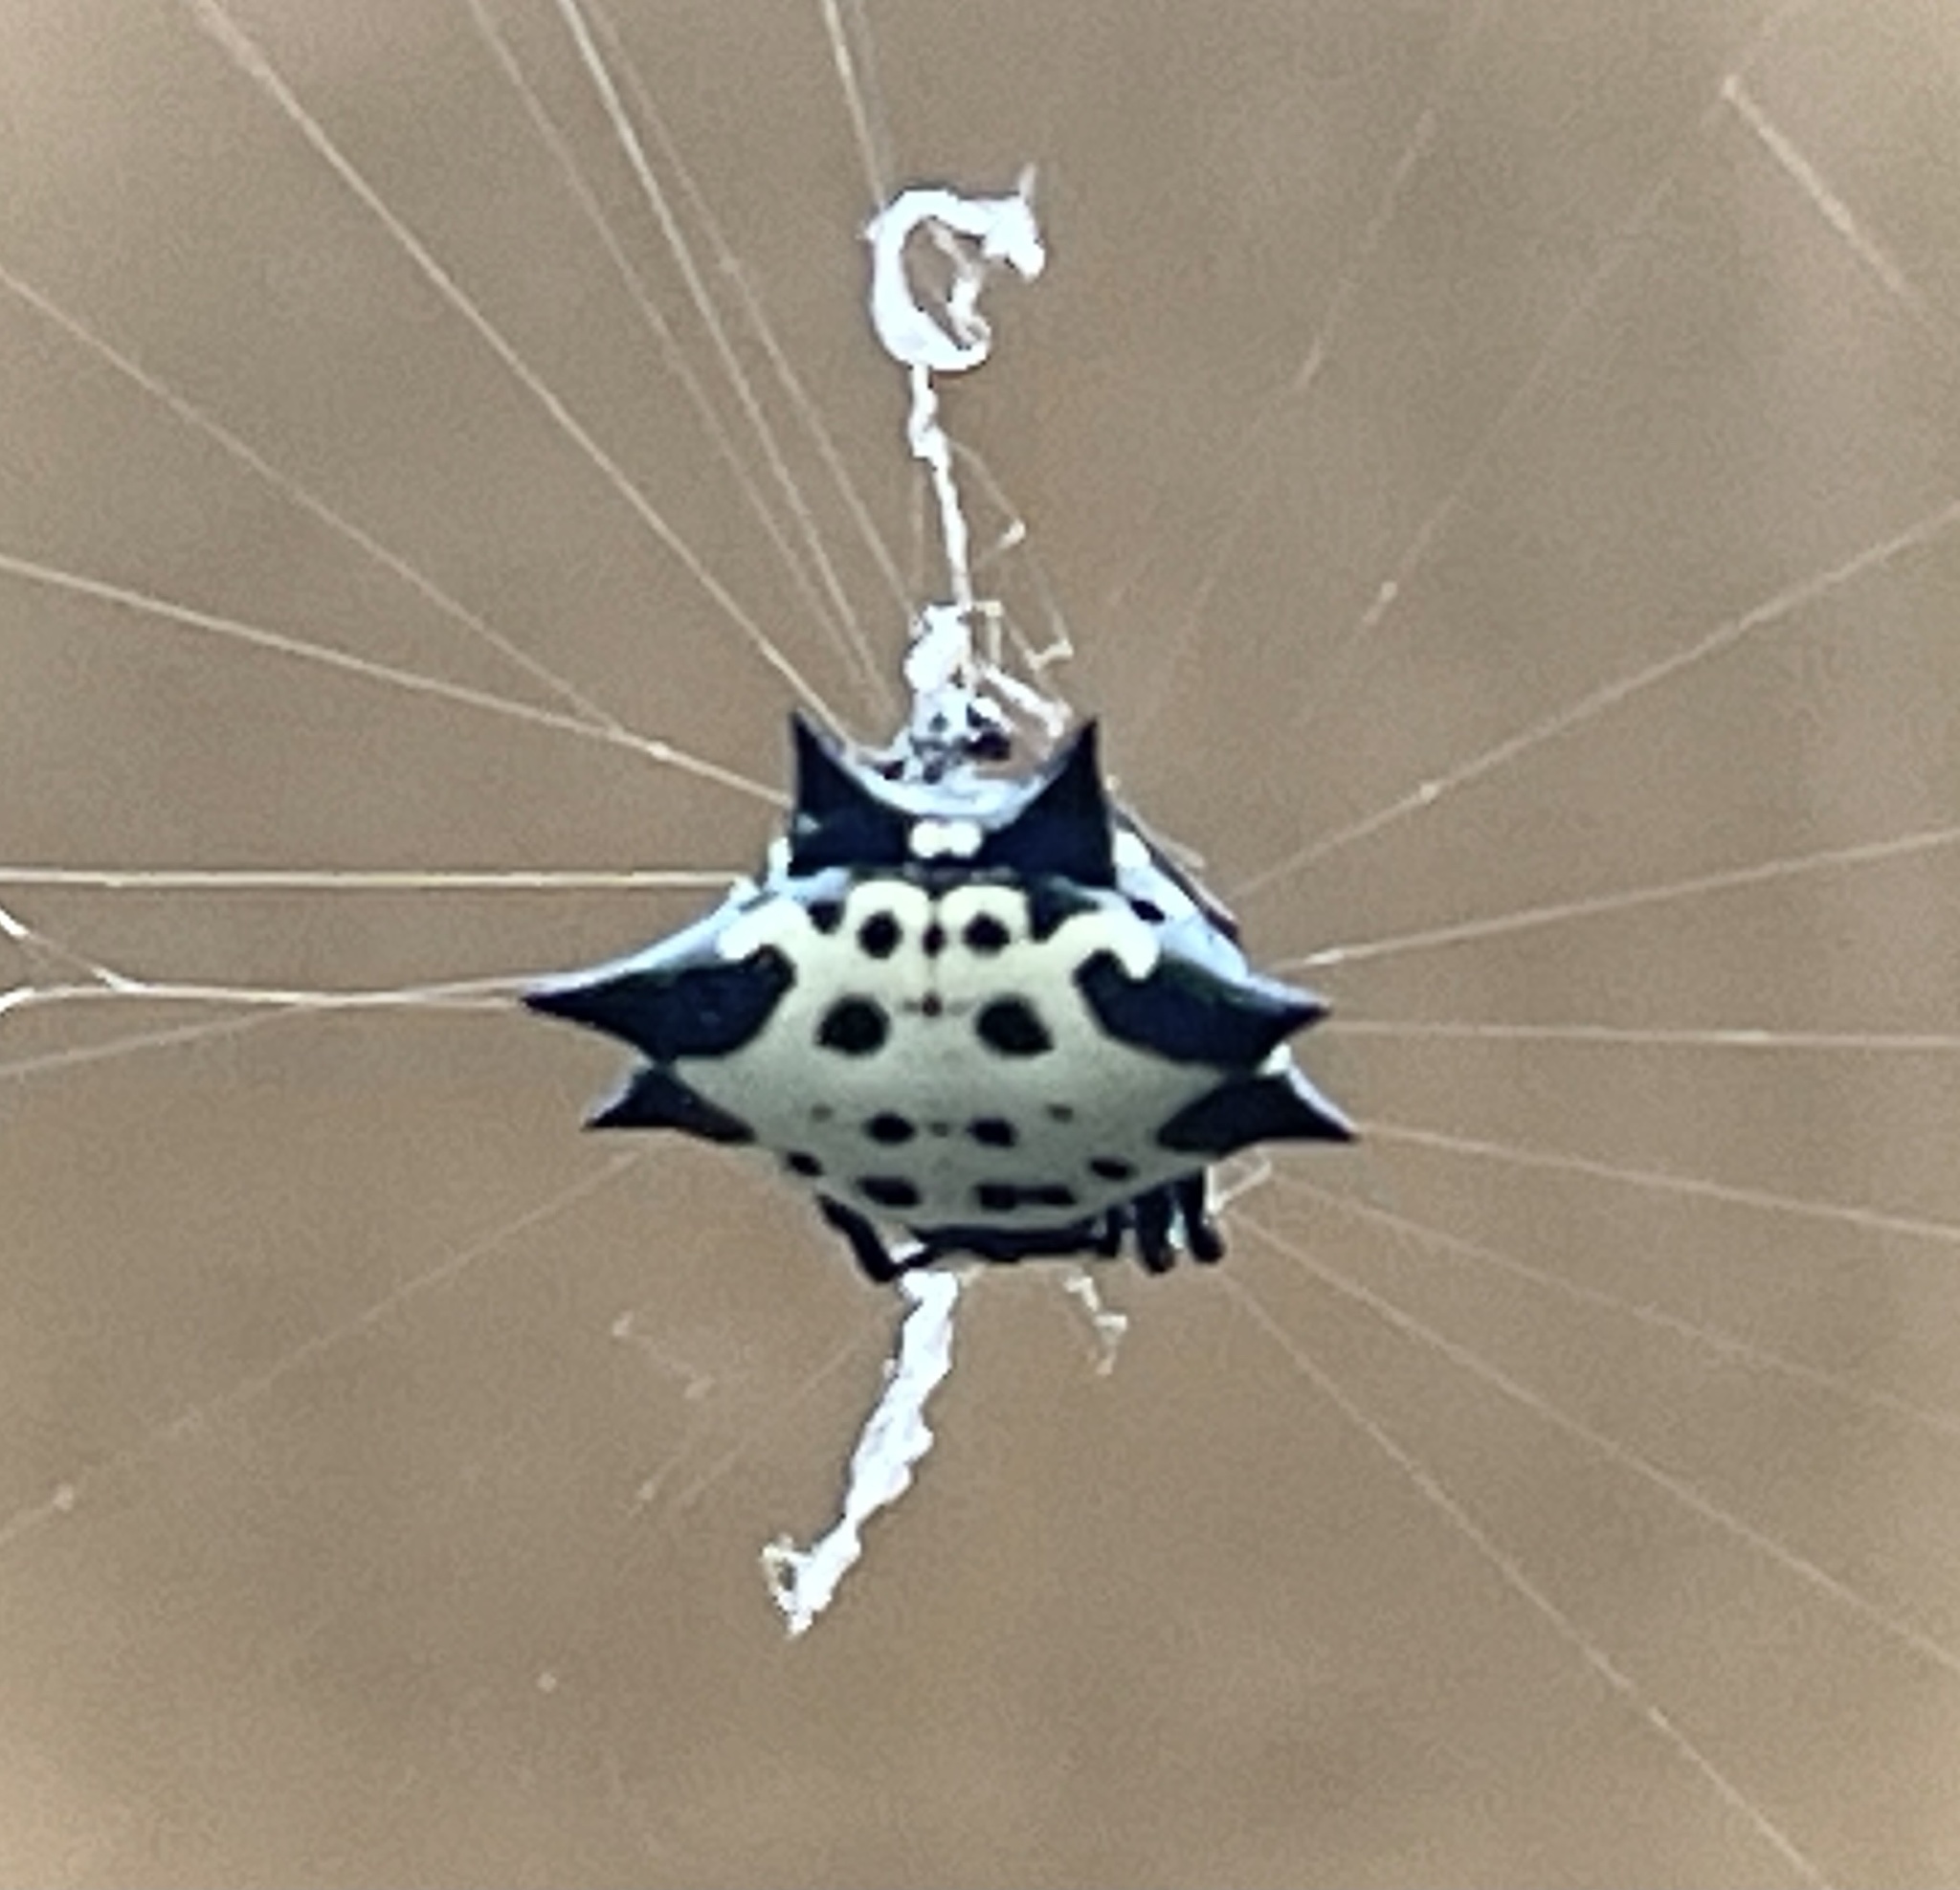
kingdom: Animalia
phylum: Arthropoda
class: Arachnida
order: Araneae
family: Araneidae
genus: Gasteracantha
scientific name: Gasteracantha cancriformis
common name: Orb weavers
